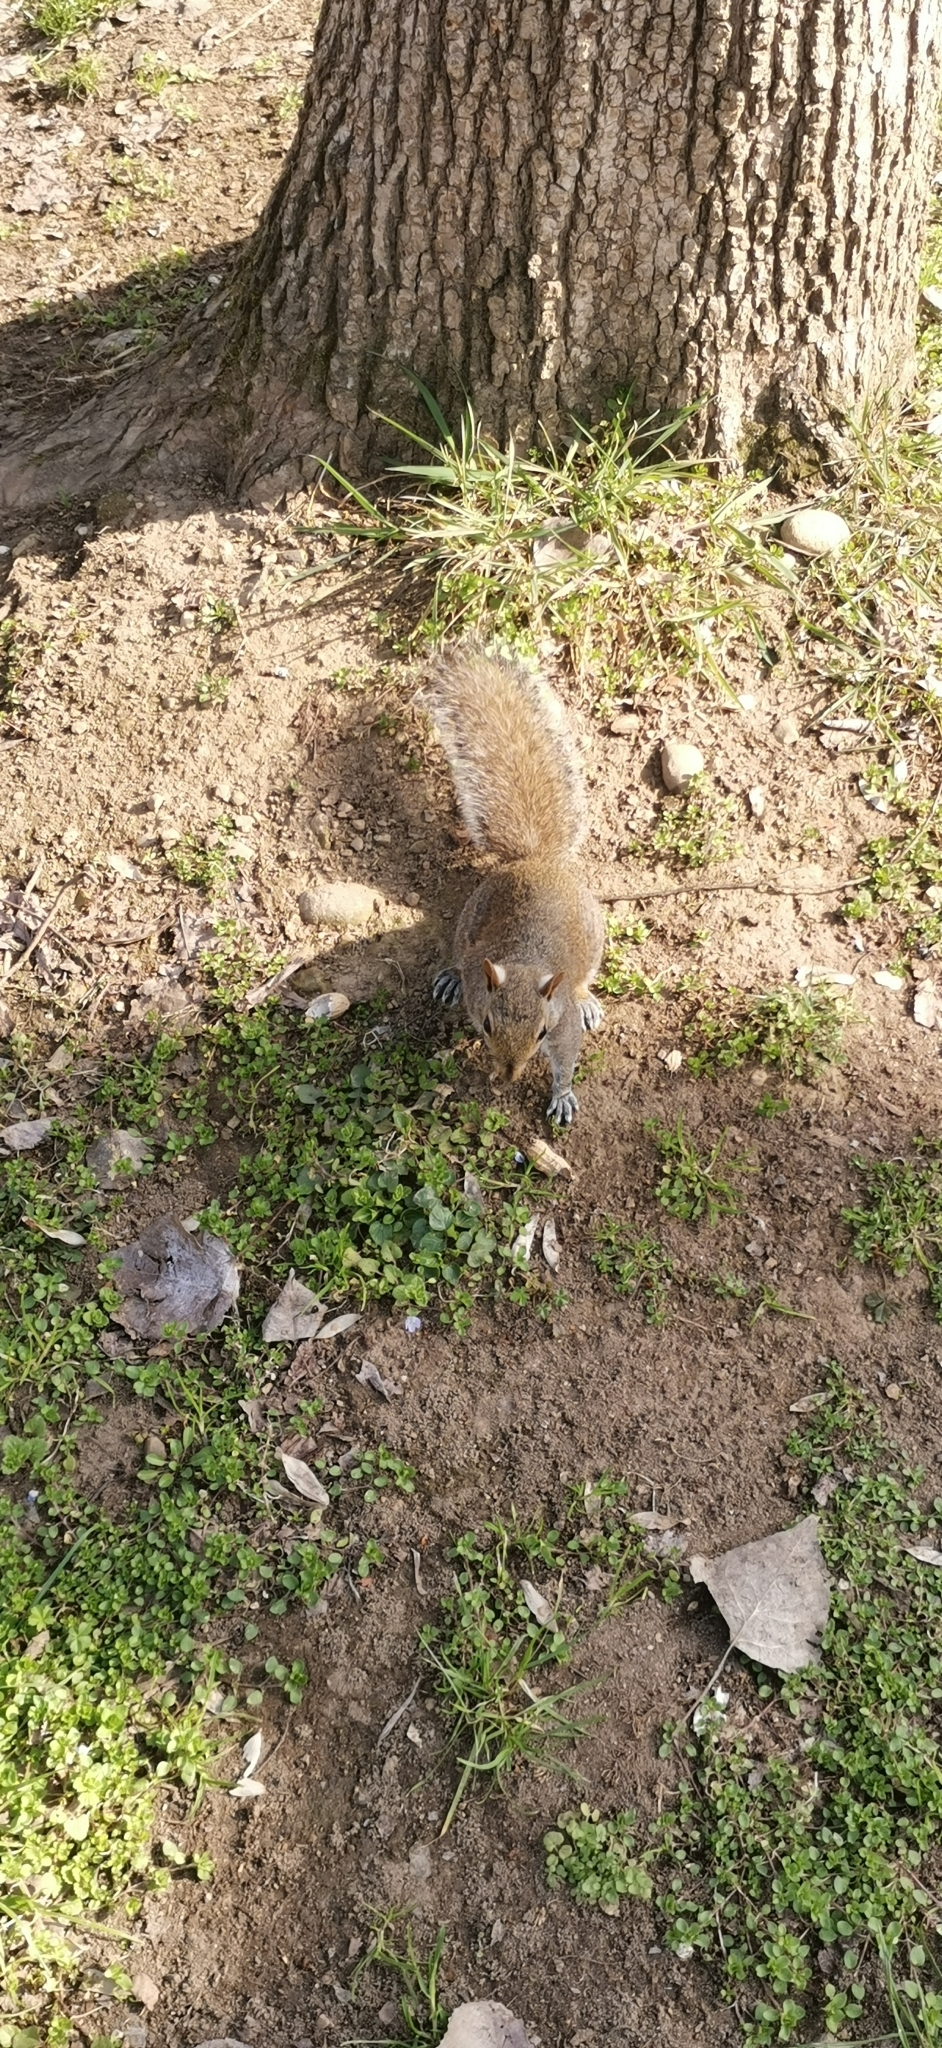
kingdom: Animalia
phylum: Chordata
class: Mammalia
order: Rodentia
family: Sciuridae
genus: Sciurus
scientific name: Sciurus carolinensis
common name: Eastern gray squirrel
